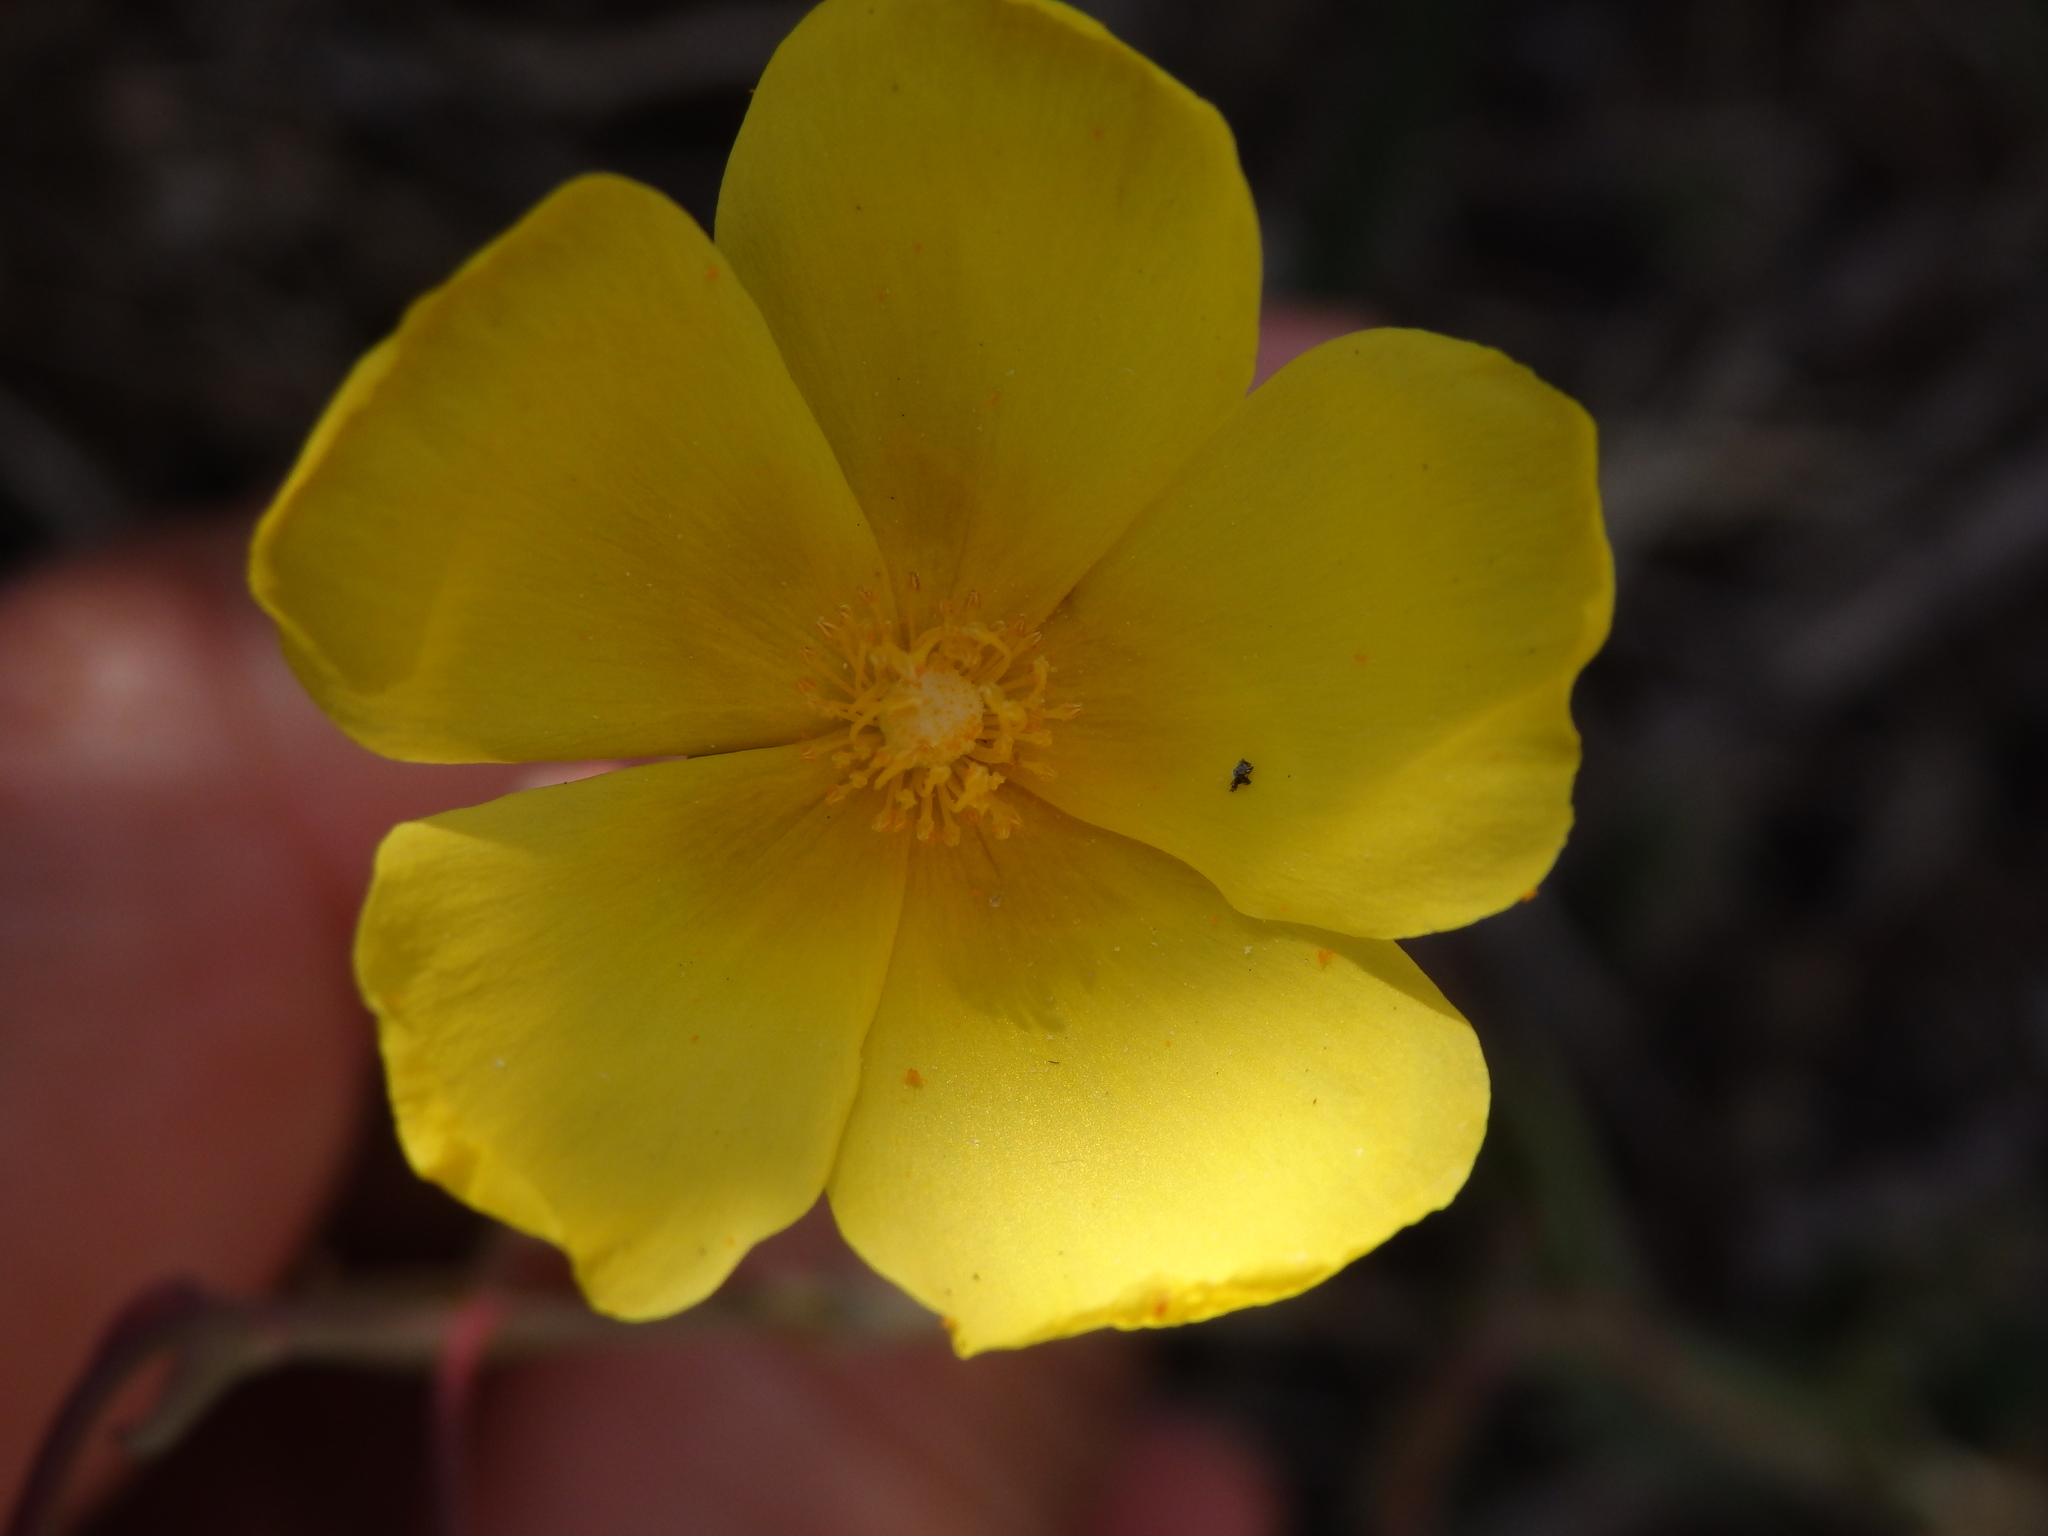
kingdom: Plantae
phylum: Tracheophyta
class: Magnoliopsida
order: Malvales
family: Cistaceae
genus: Tuberaria
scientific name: Tuberaria lignosa
